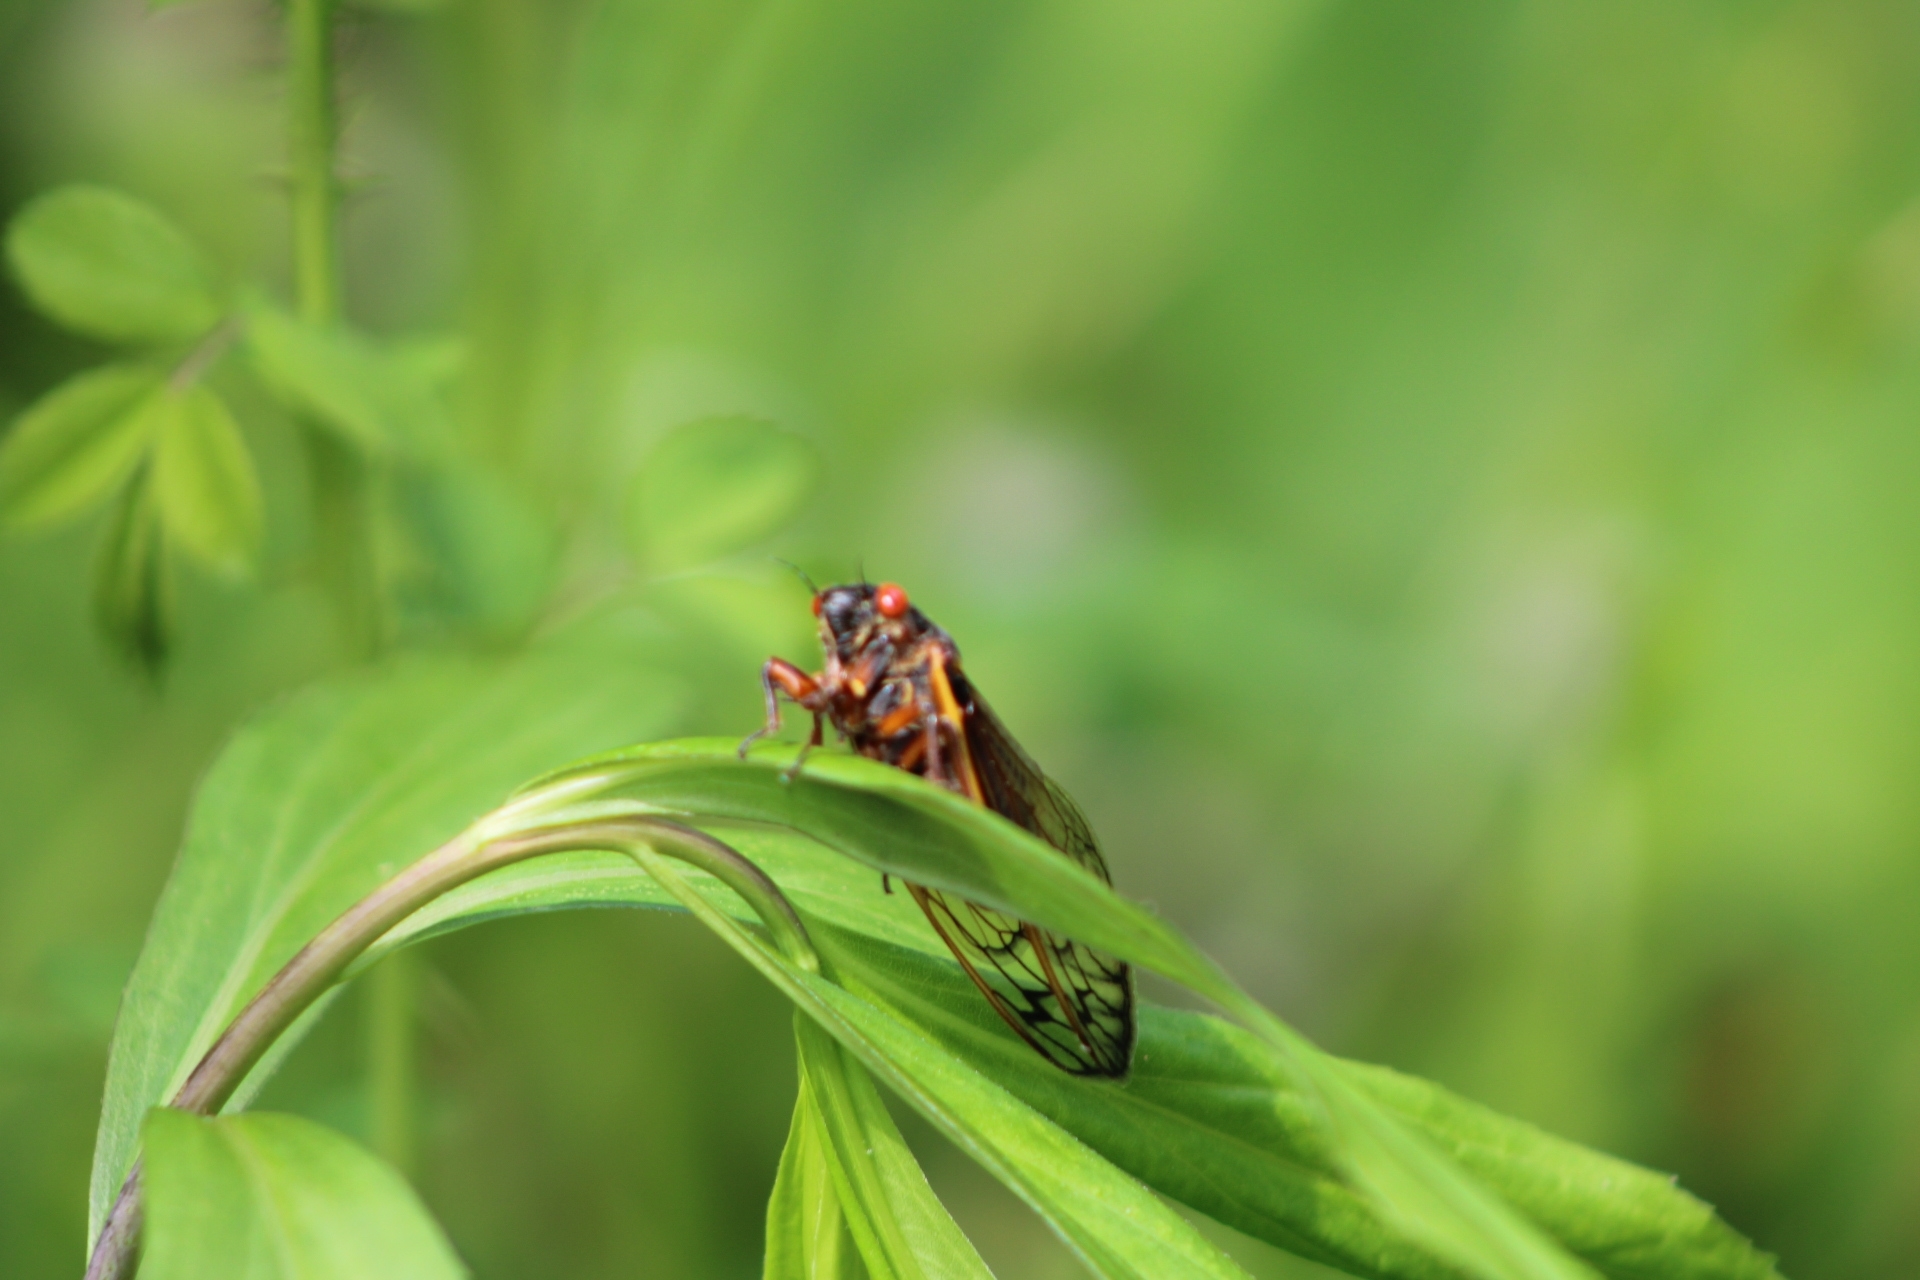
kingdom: Animalia
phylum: Arthropoda
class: Insecta
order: Hemiptera
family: Cicadidae
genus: Magicicada
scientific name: Magicicada septendecim
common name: Periodical cicada
